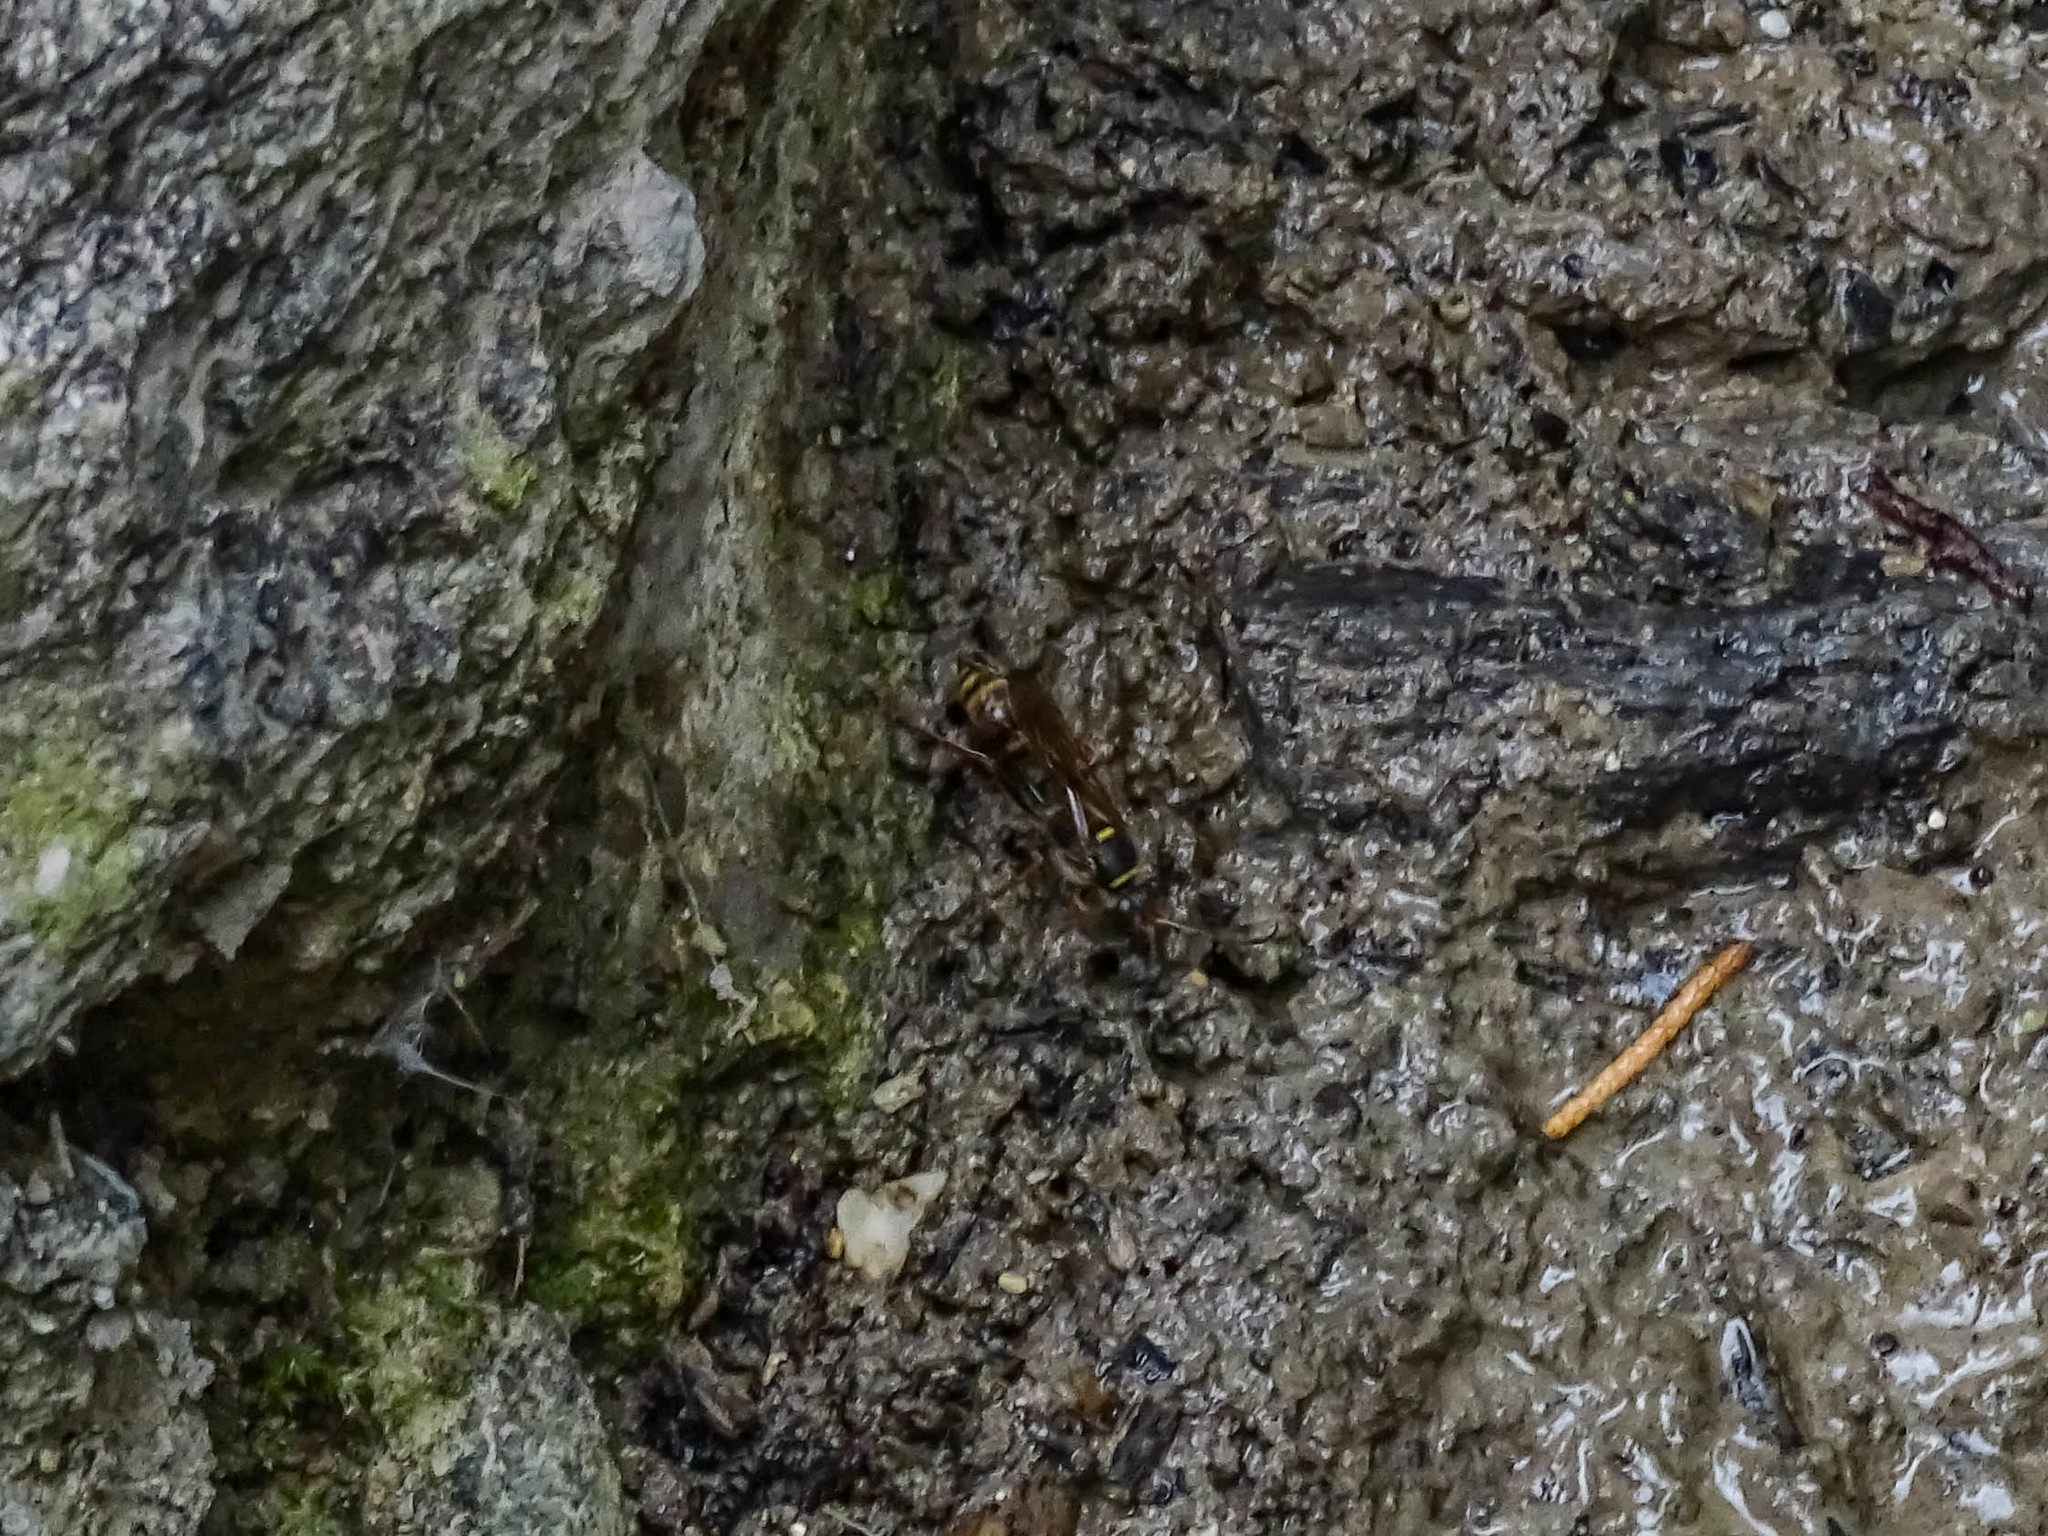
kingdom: Animalia
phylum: Arthropoda
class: Insecta
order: Hymenoptera
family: Sphecidae
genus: Sceliphron
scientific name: Sceliphron curvatum
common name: Pèlopèe
